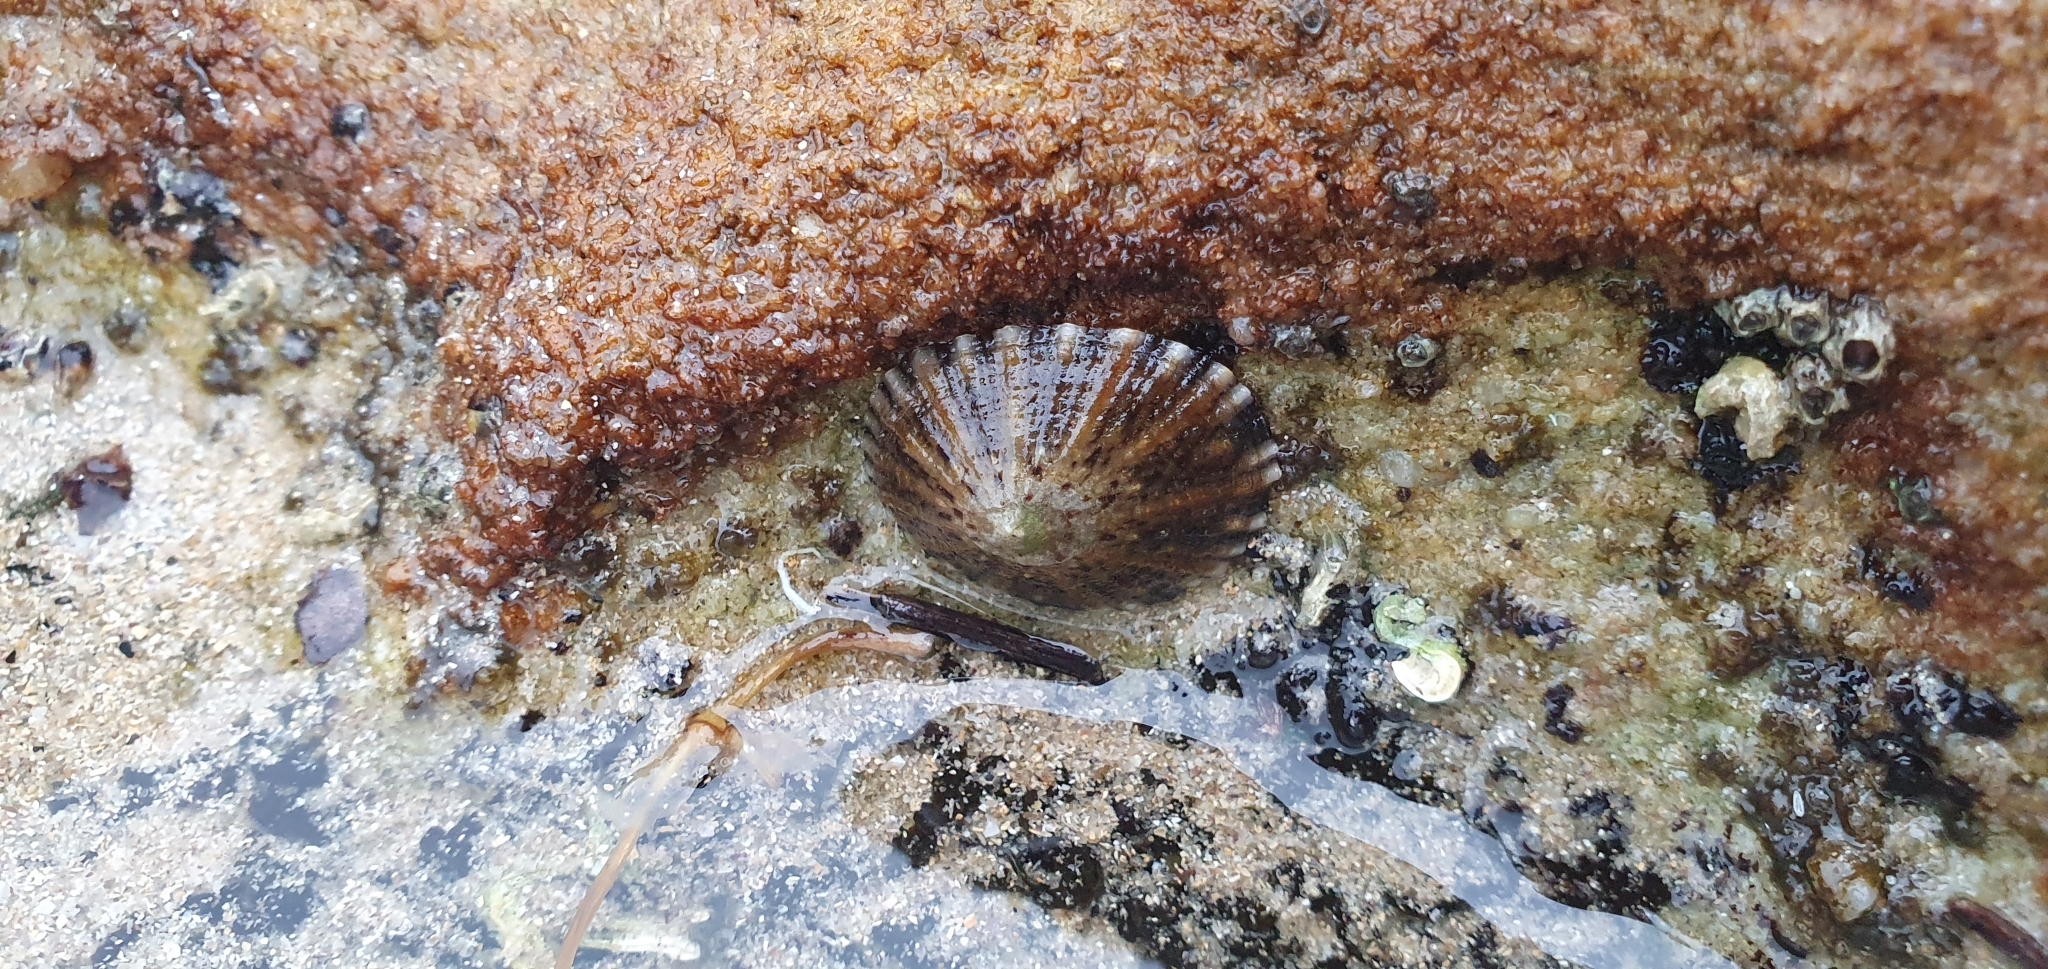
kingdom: Animalia
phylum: Mollusca
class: Gastropoda
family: Nacellidae
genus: Cellana
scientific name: Cellana tramoserica
